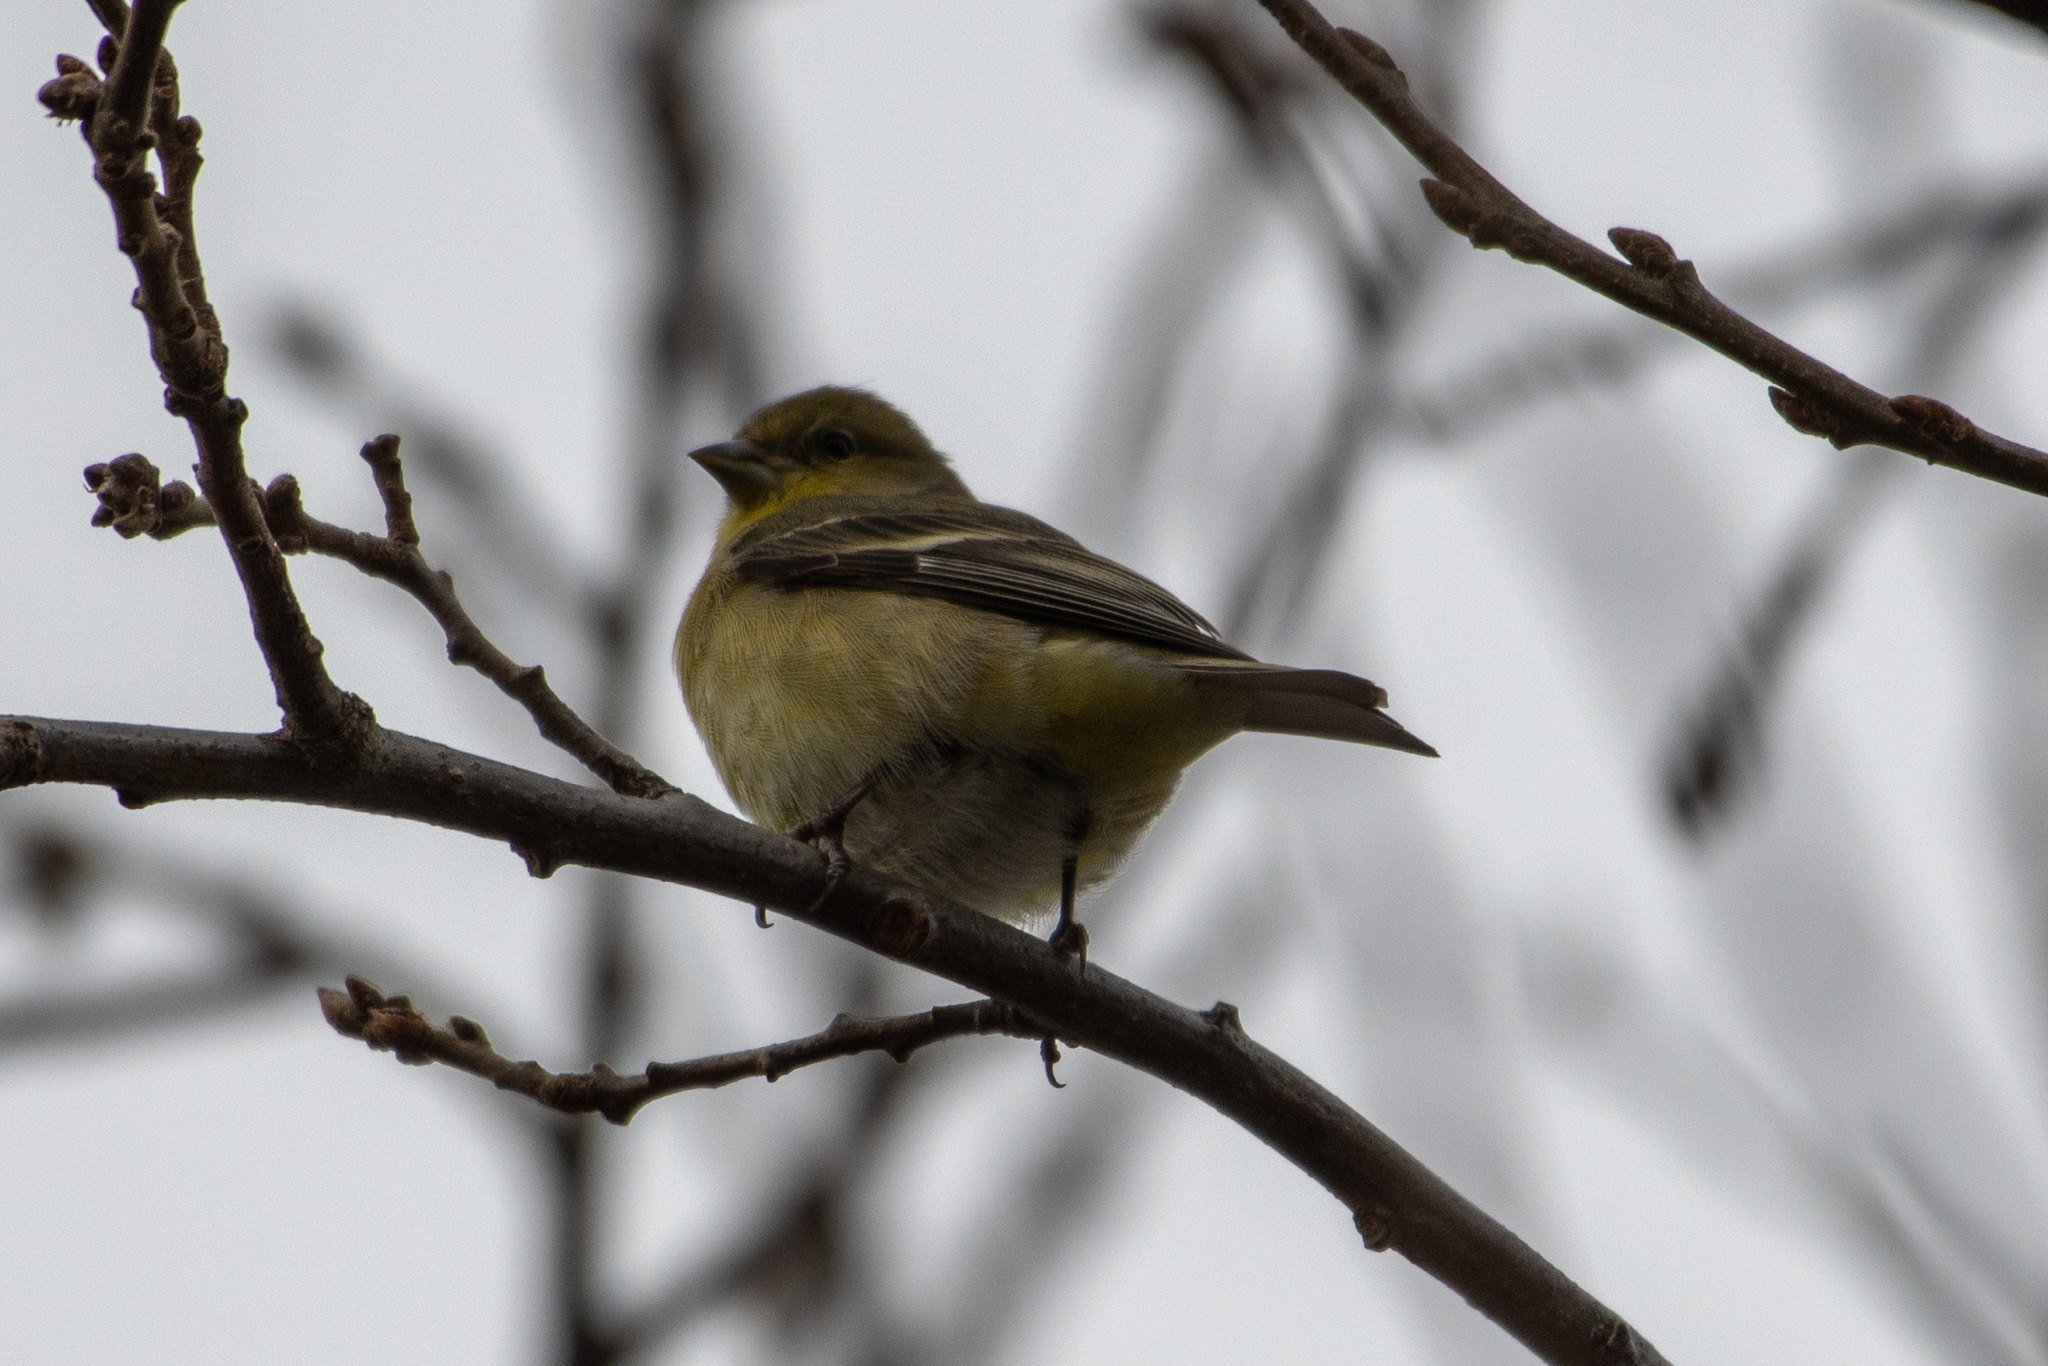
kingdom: Animalia
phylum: Chordata
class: Aves
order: Passeriformes
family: Fringillidae
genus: Spinus
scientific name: Spinus psaltria
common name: Lesser goldfinch
